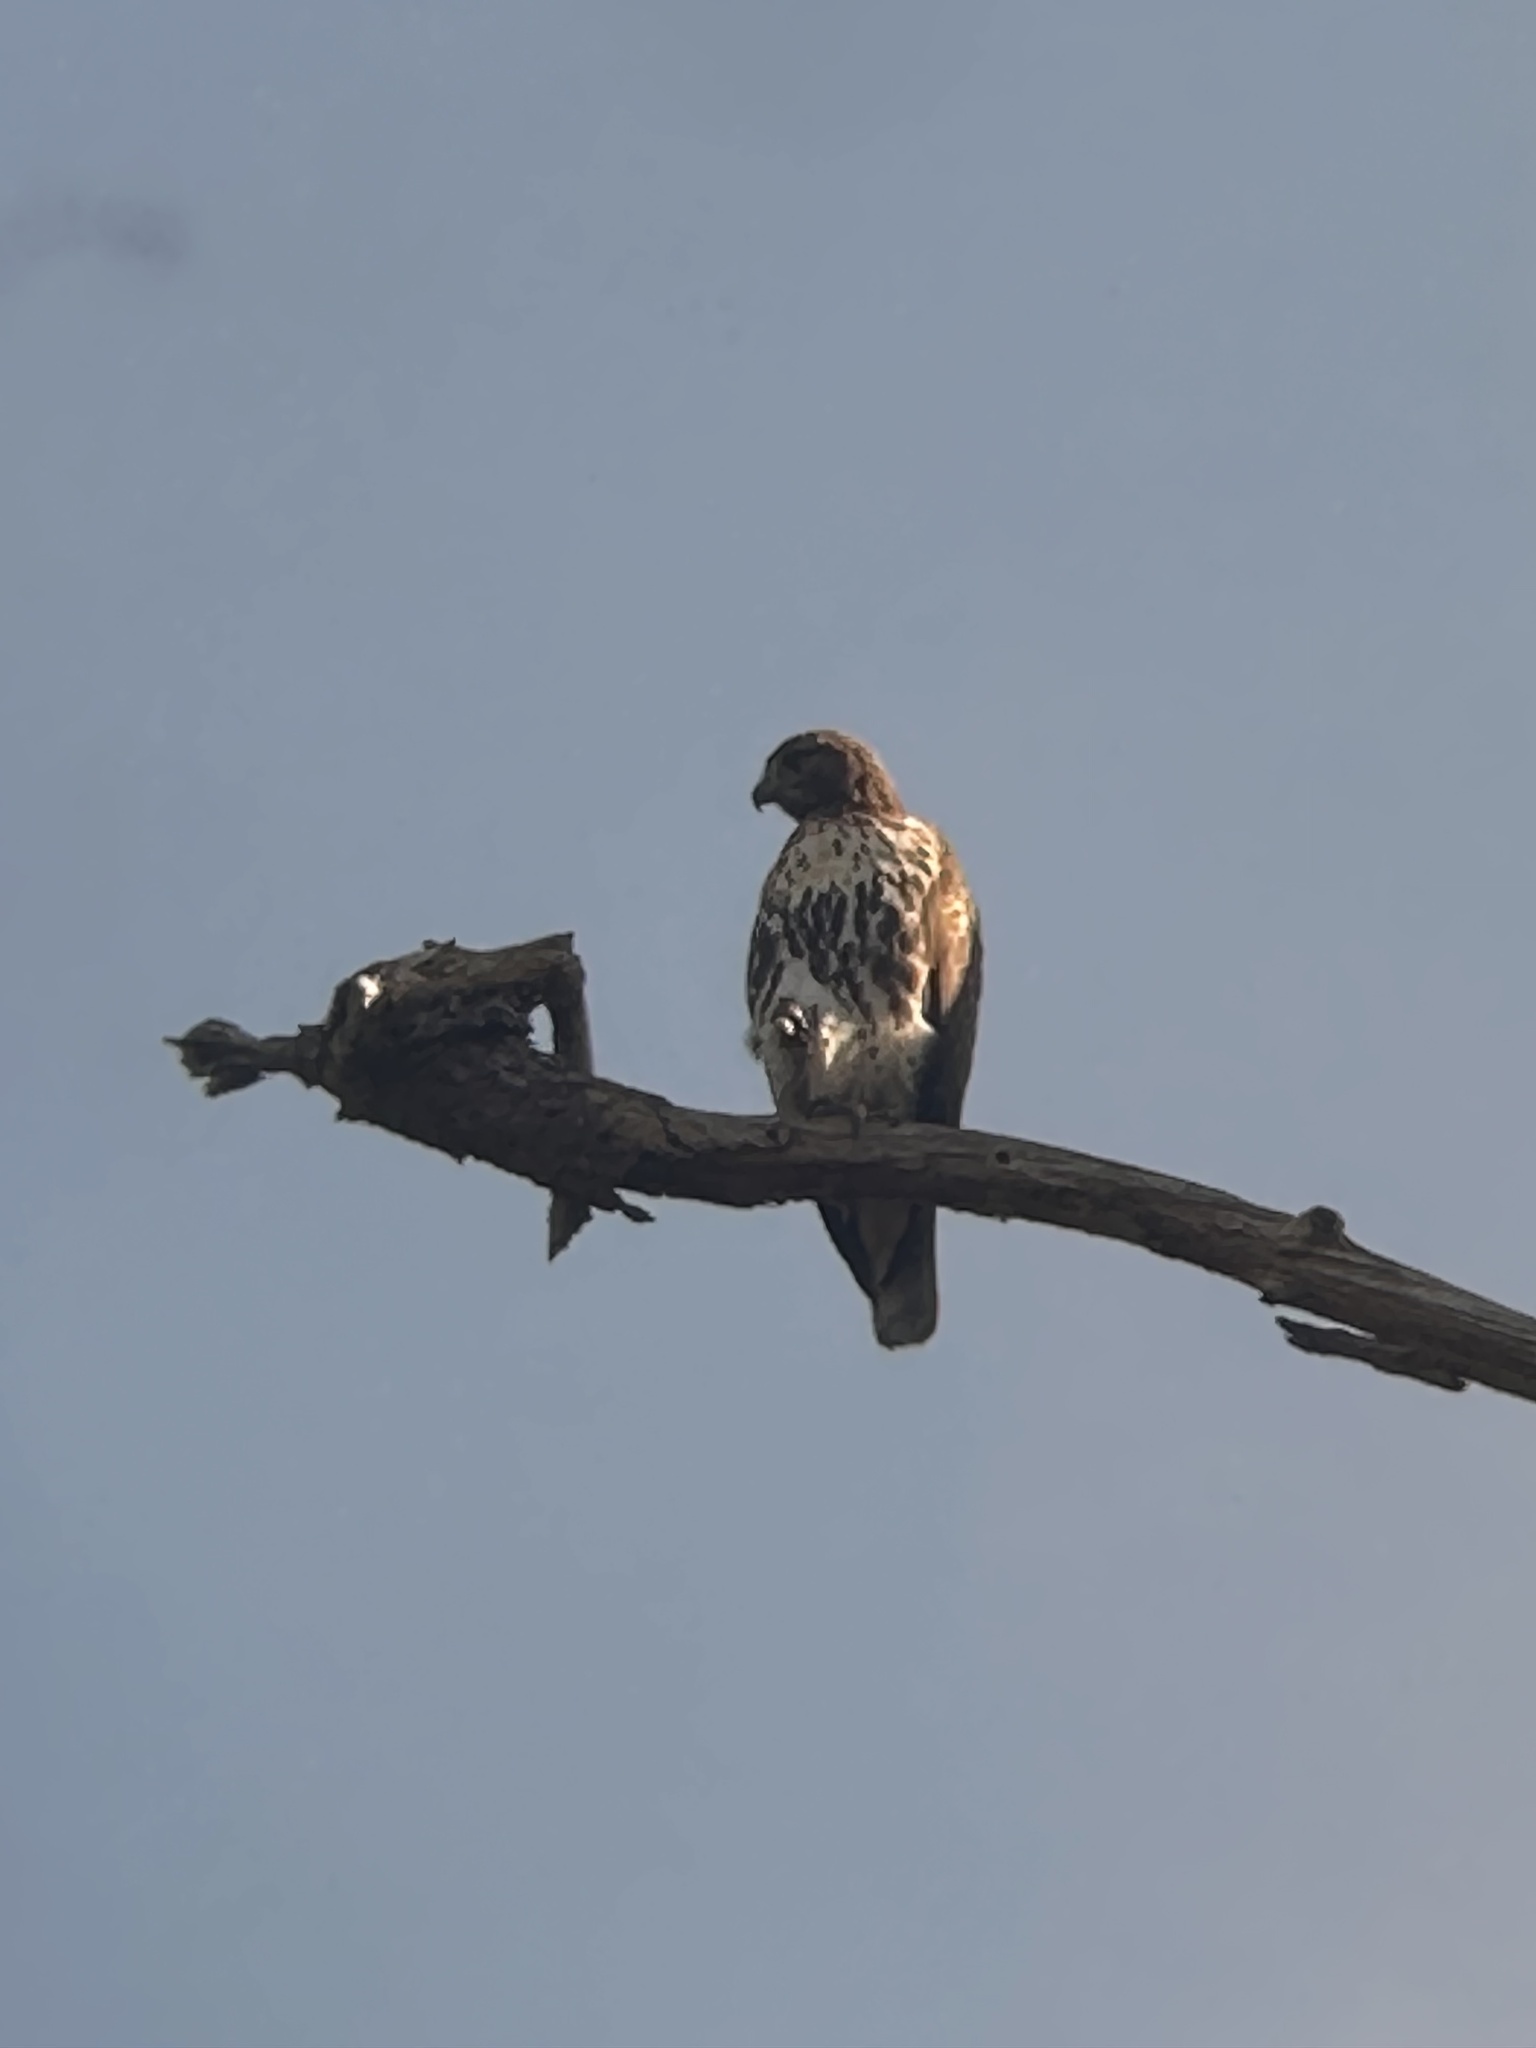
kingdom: Animalia
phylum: Chordata
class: Aves
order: Accipitriformes
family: Accipitridae
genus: Buteo
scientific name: Buteo lineatus
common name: Red-shouldered hawk
